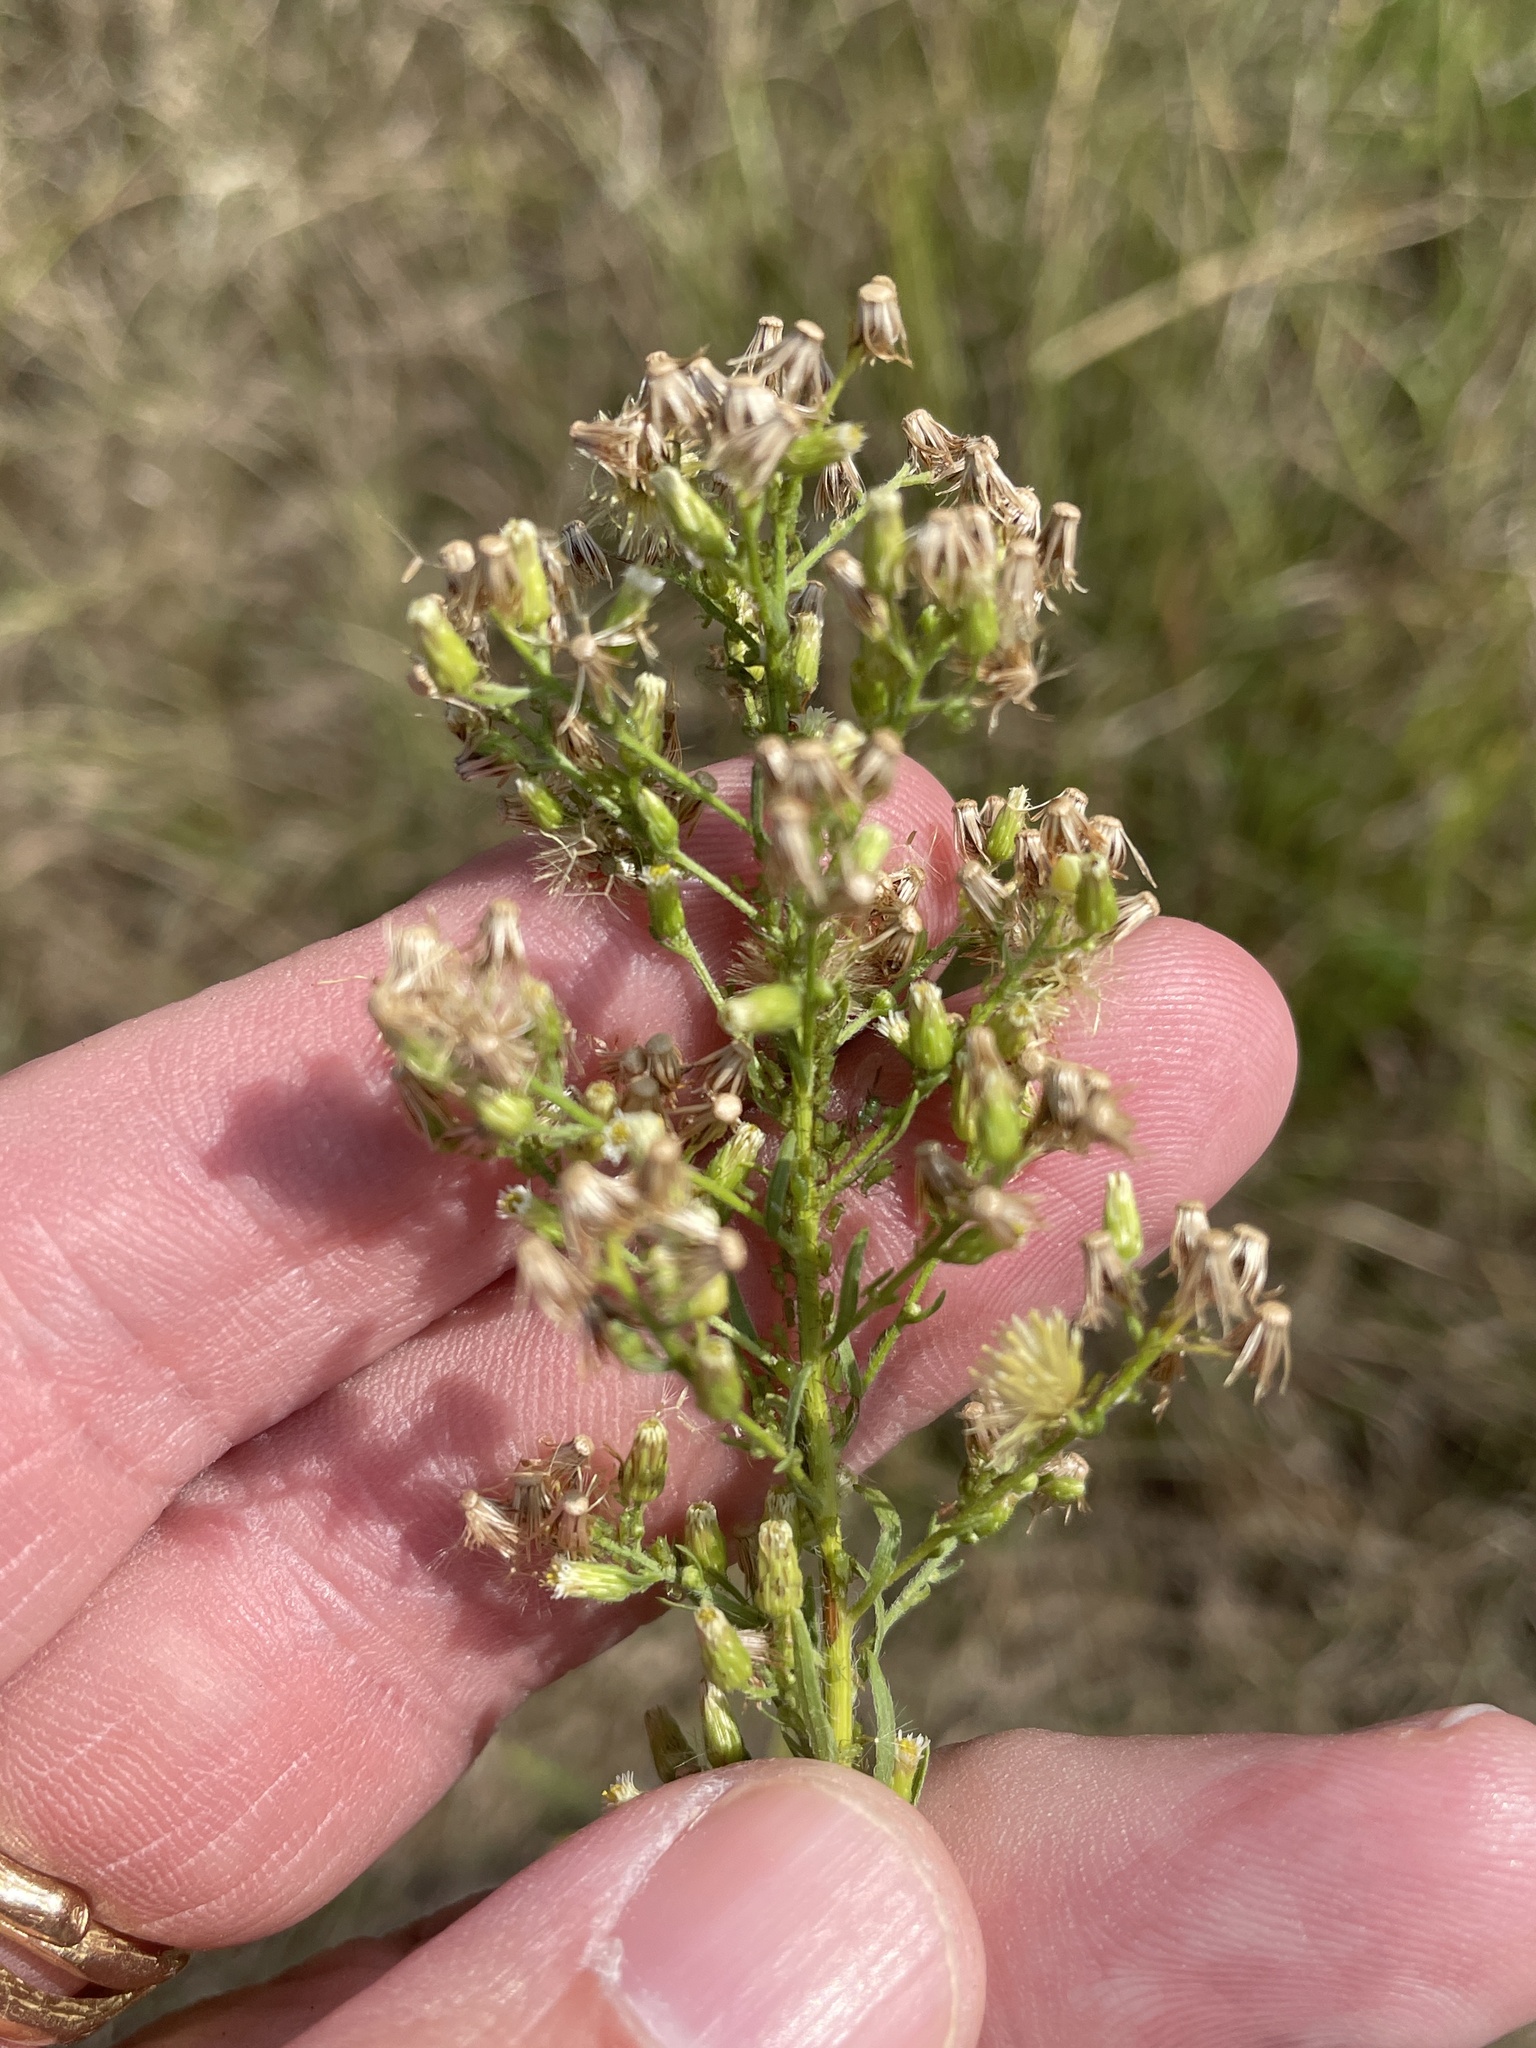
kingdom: Plantae
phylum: Tracheophyta
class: Magnoliopsida
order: Asterales
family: Asteraceae
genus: Erigeron
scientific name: Erigeron canadensis
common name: Canadian fleabane
